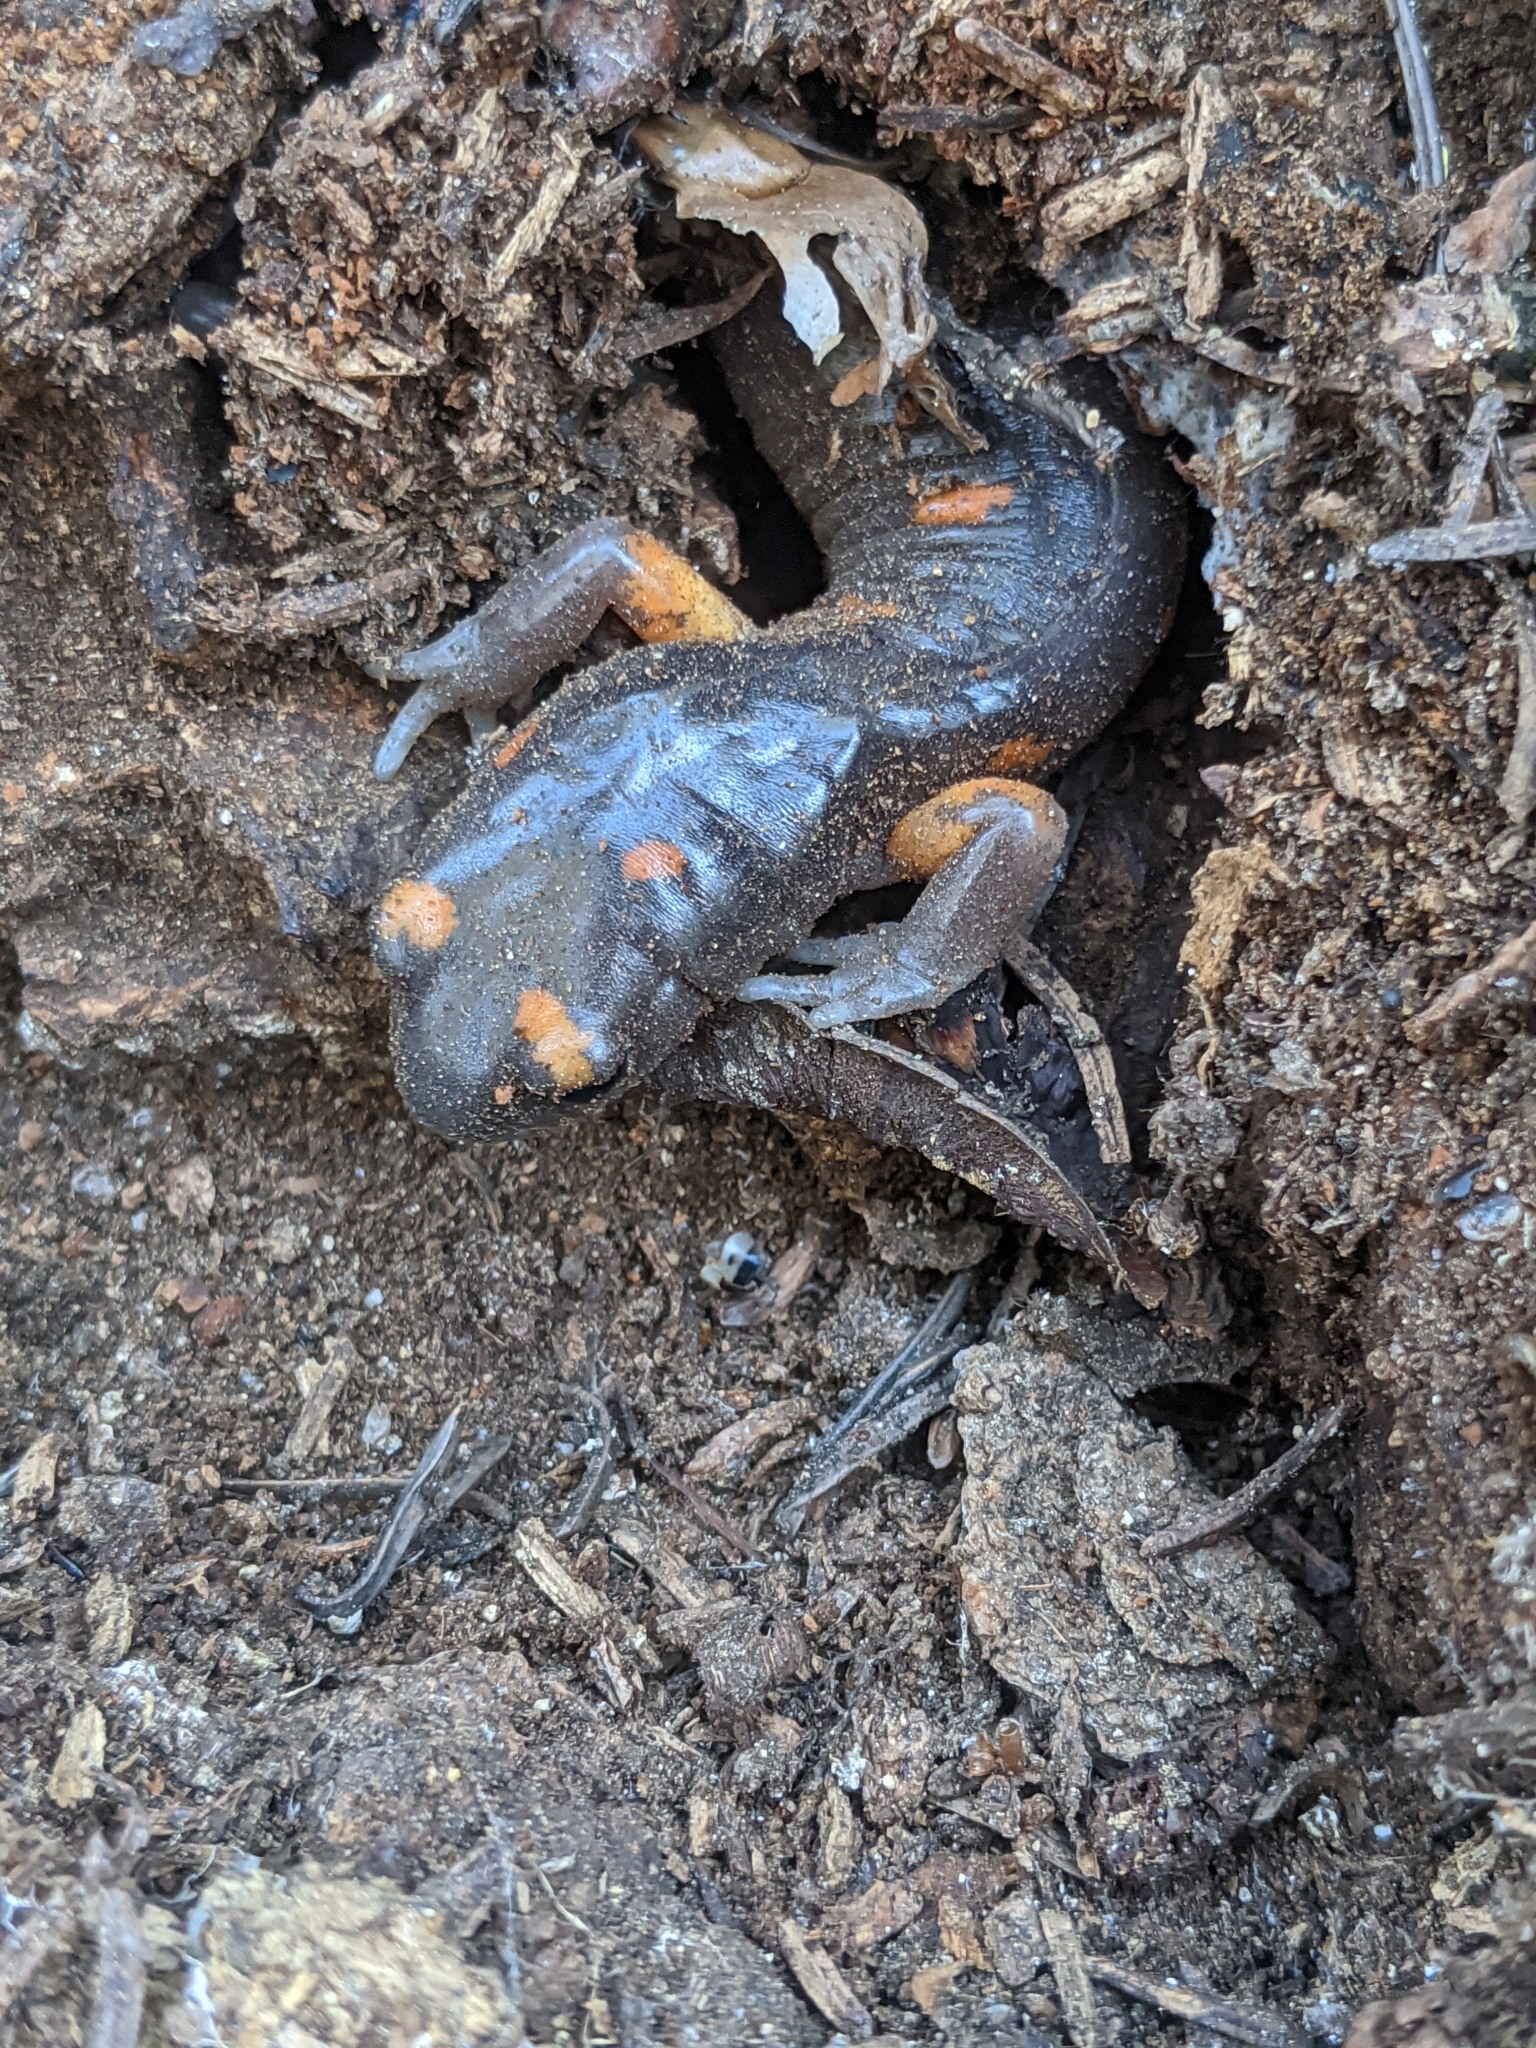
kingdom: Animalia
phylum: Chordata
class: Amphibia
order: Caudata
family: Plethodontidae
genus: Ensatina
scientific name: Ensatina eschscholtzii
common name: Ensatina
